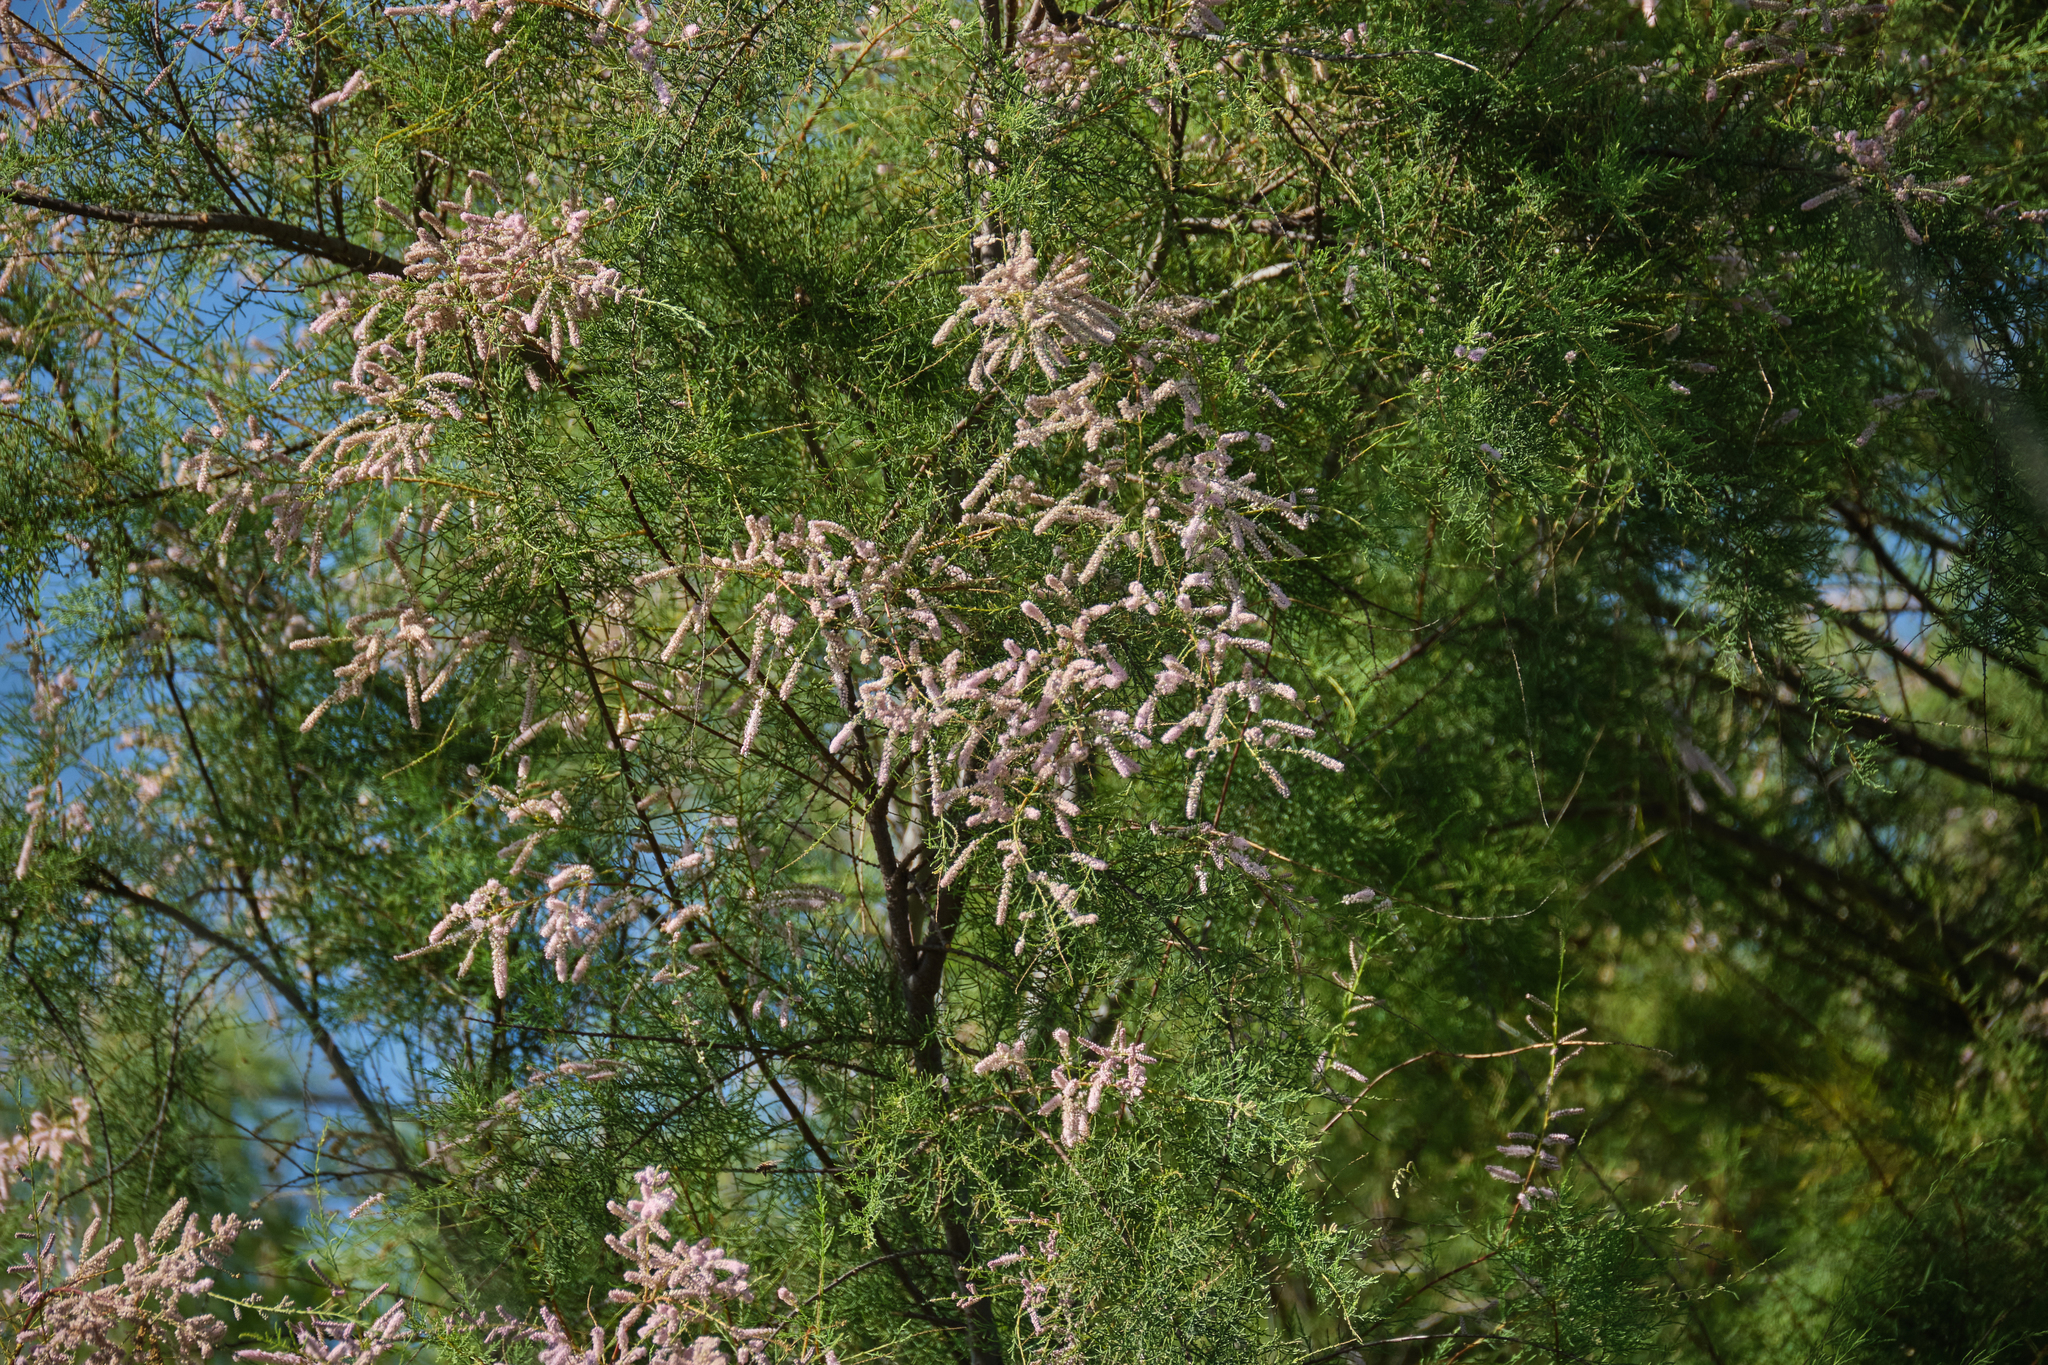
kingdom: Plantae
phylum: Tracheophyta
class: Magnoliopsida
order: Caryophyllales
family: Tamaricaceae
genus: Tamarix
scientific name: Tamarix
